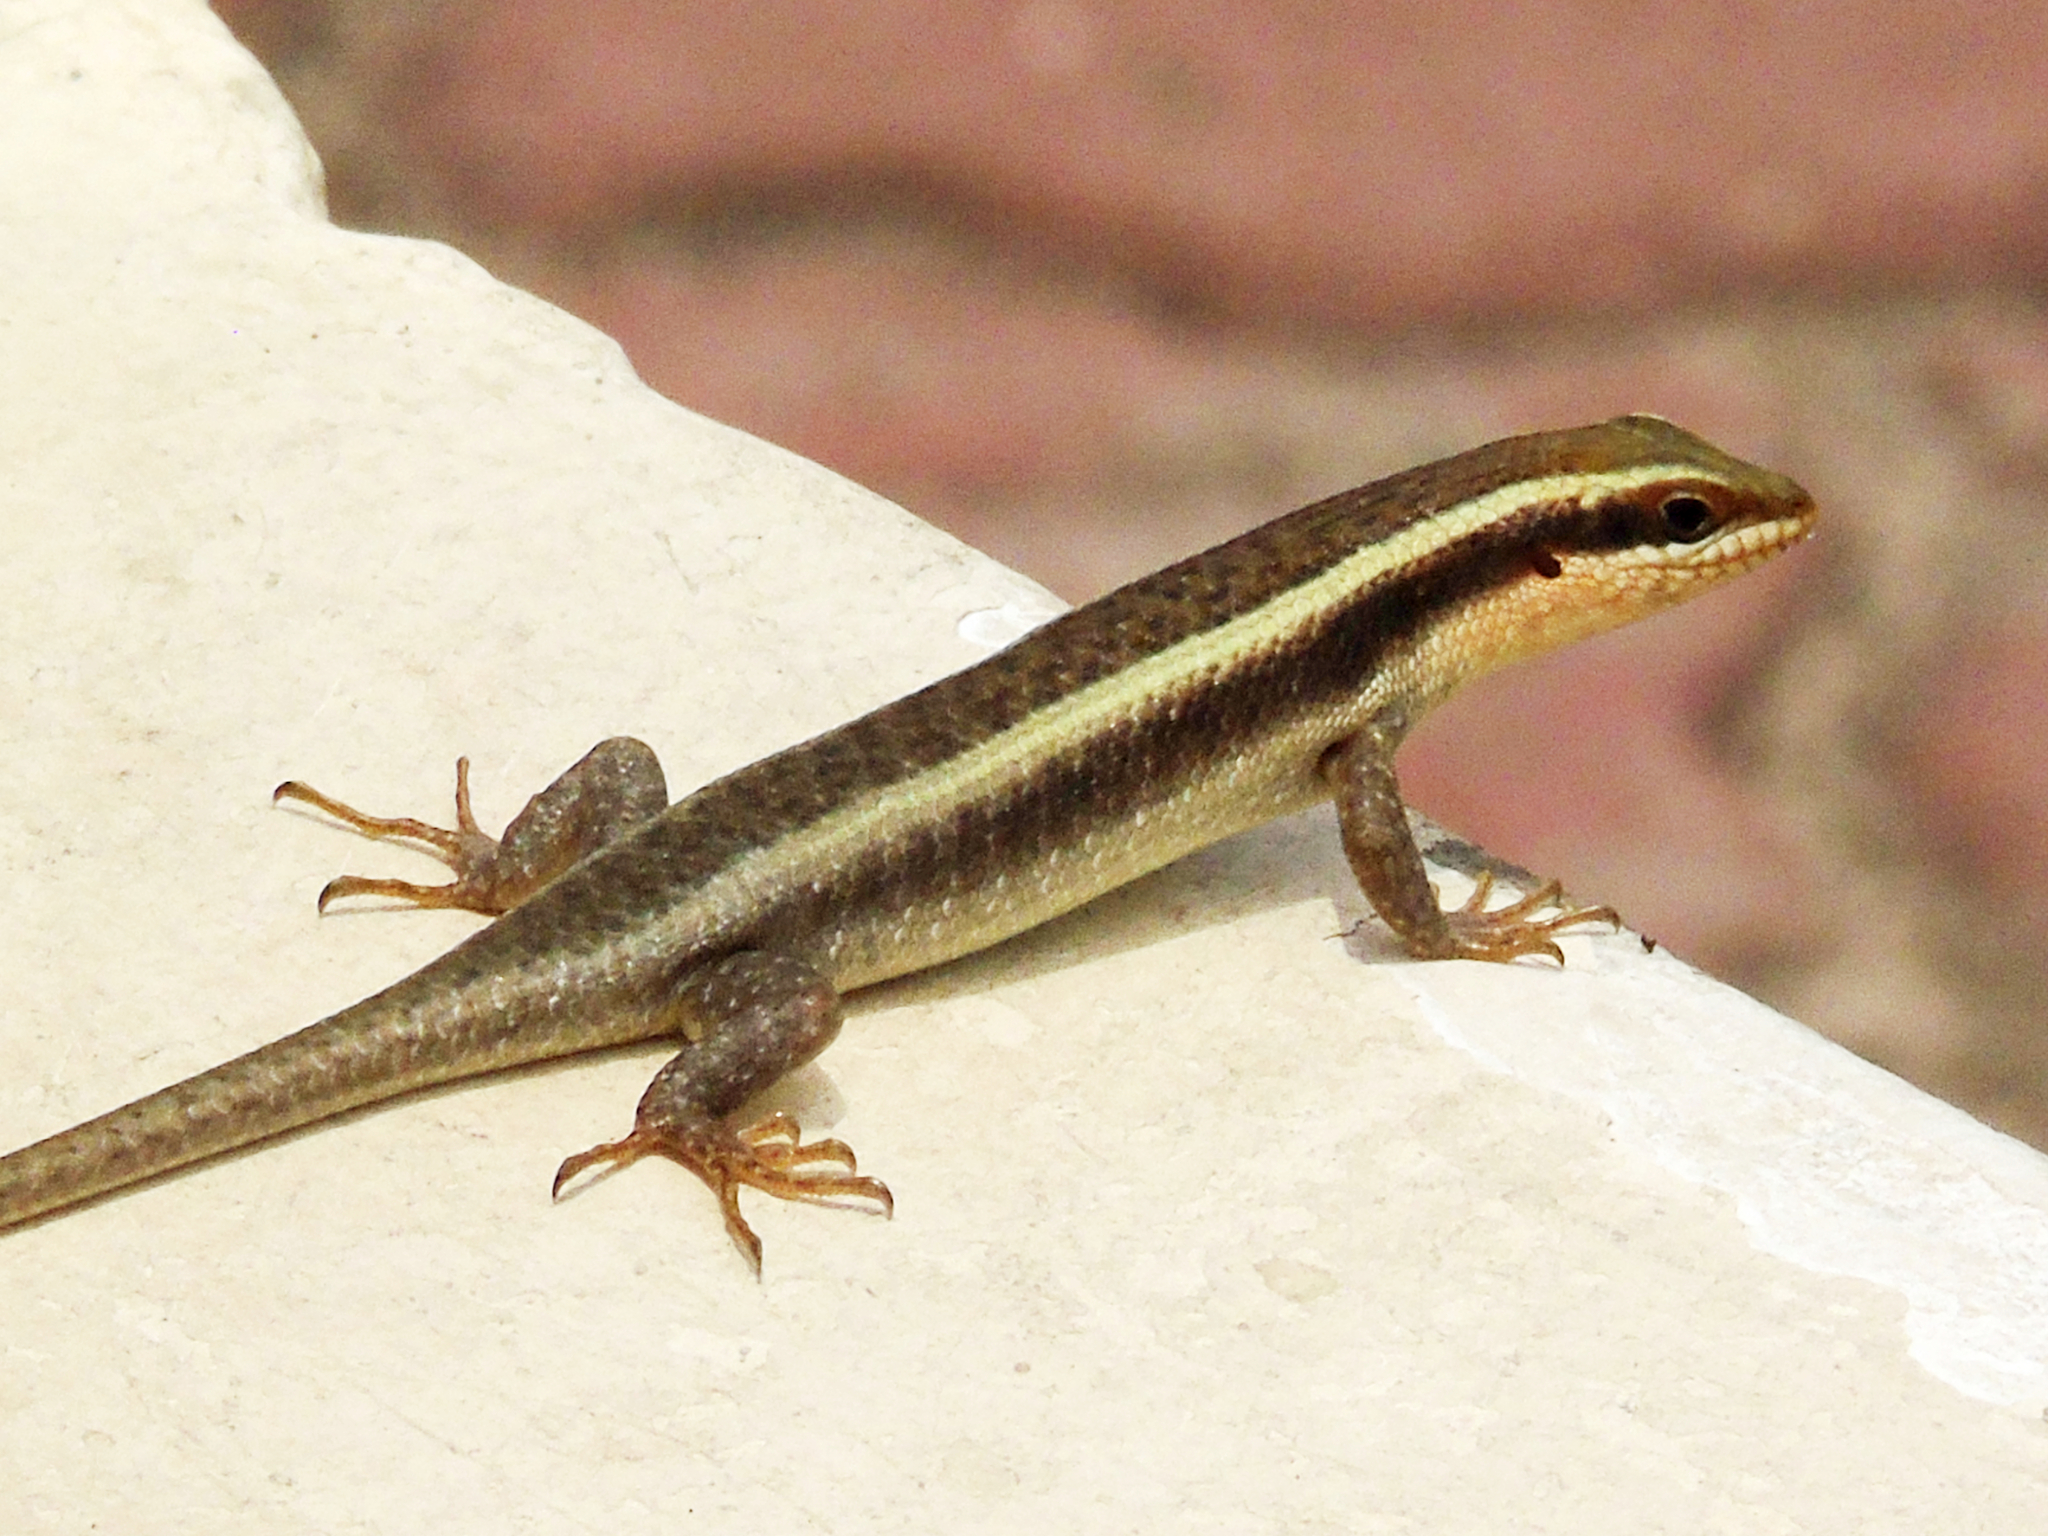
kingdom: Animalia
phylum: Chordata
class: Squamata
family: Scincidae
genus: Trachylepis
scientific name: Trachylepis striata
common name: African striped mabuya
